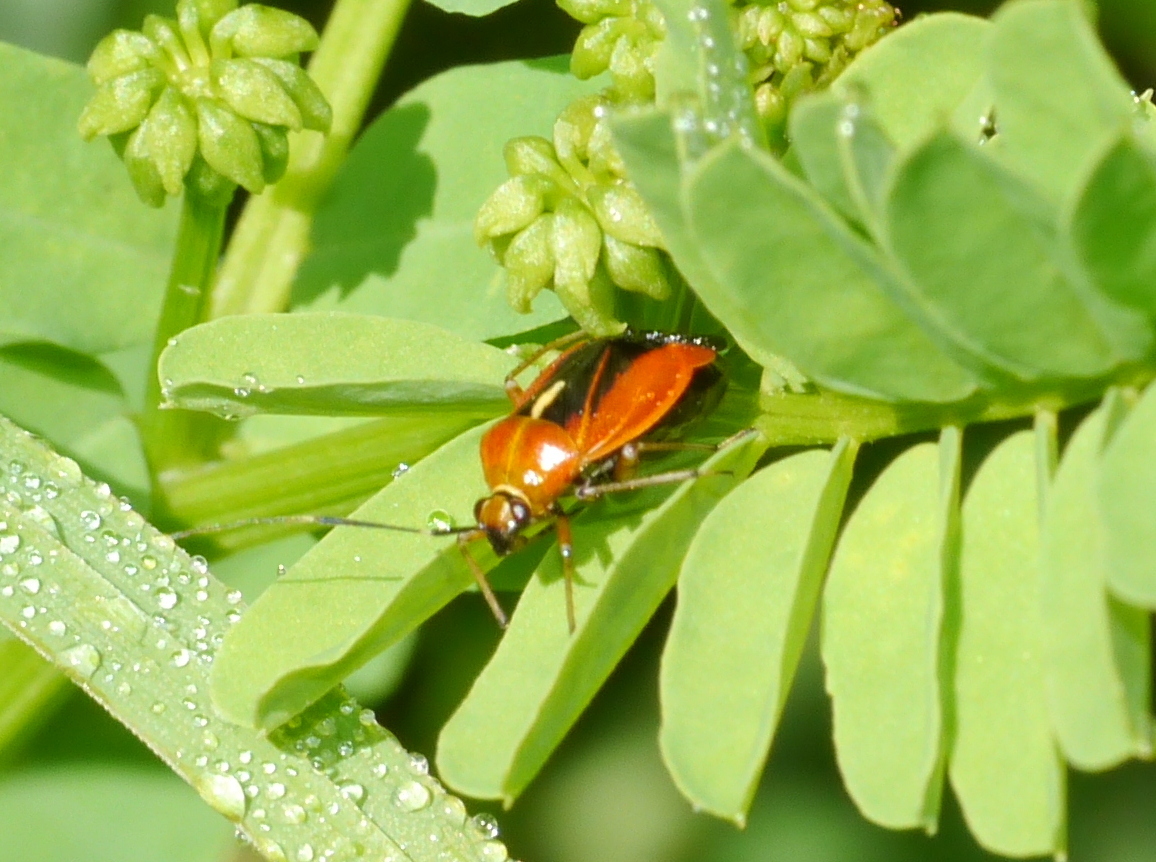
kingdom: Animalia
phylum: Arthropoda
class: Insecta
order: Hemiptera
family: Miridae
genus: Metriorrhynchomiris
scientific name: Metriorrhynchomiris dislocatus
